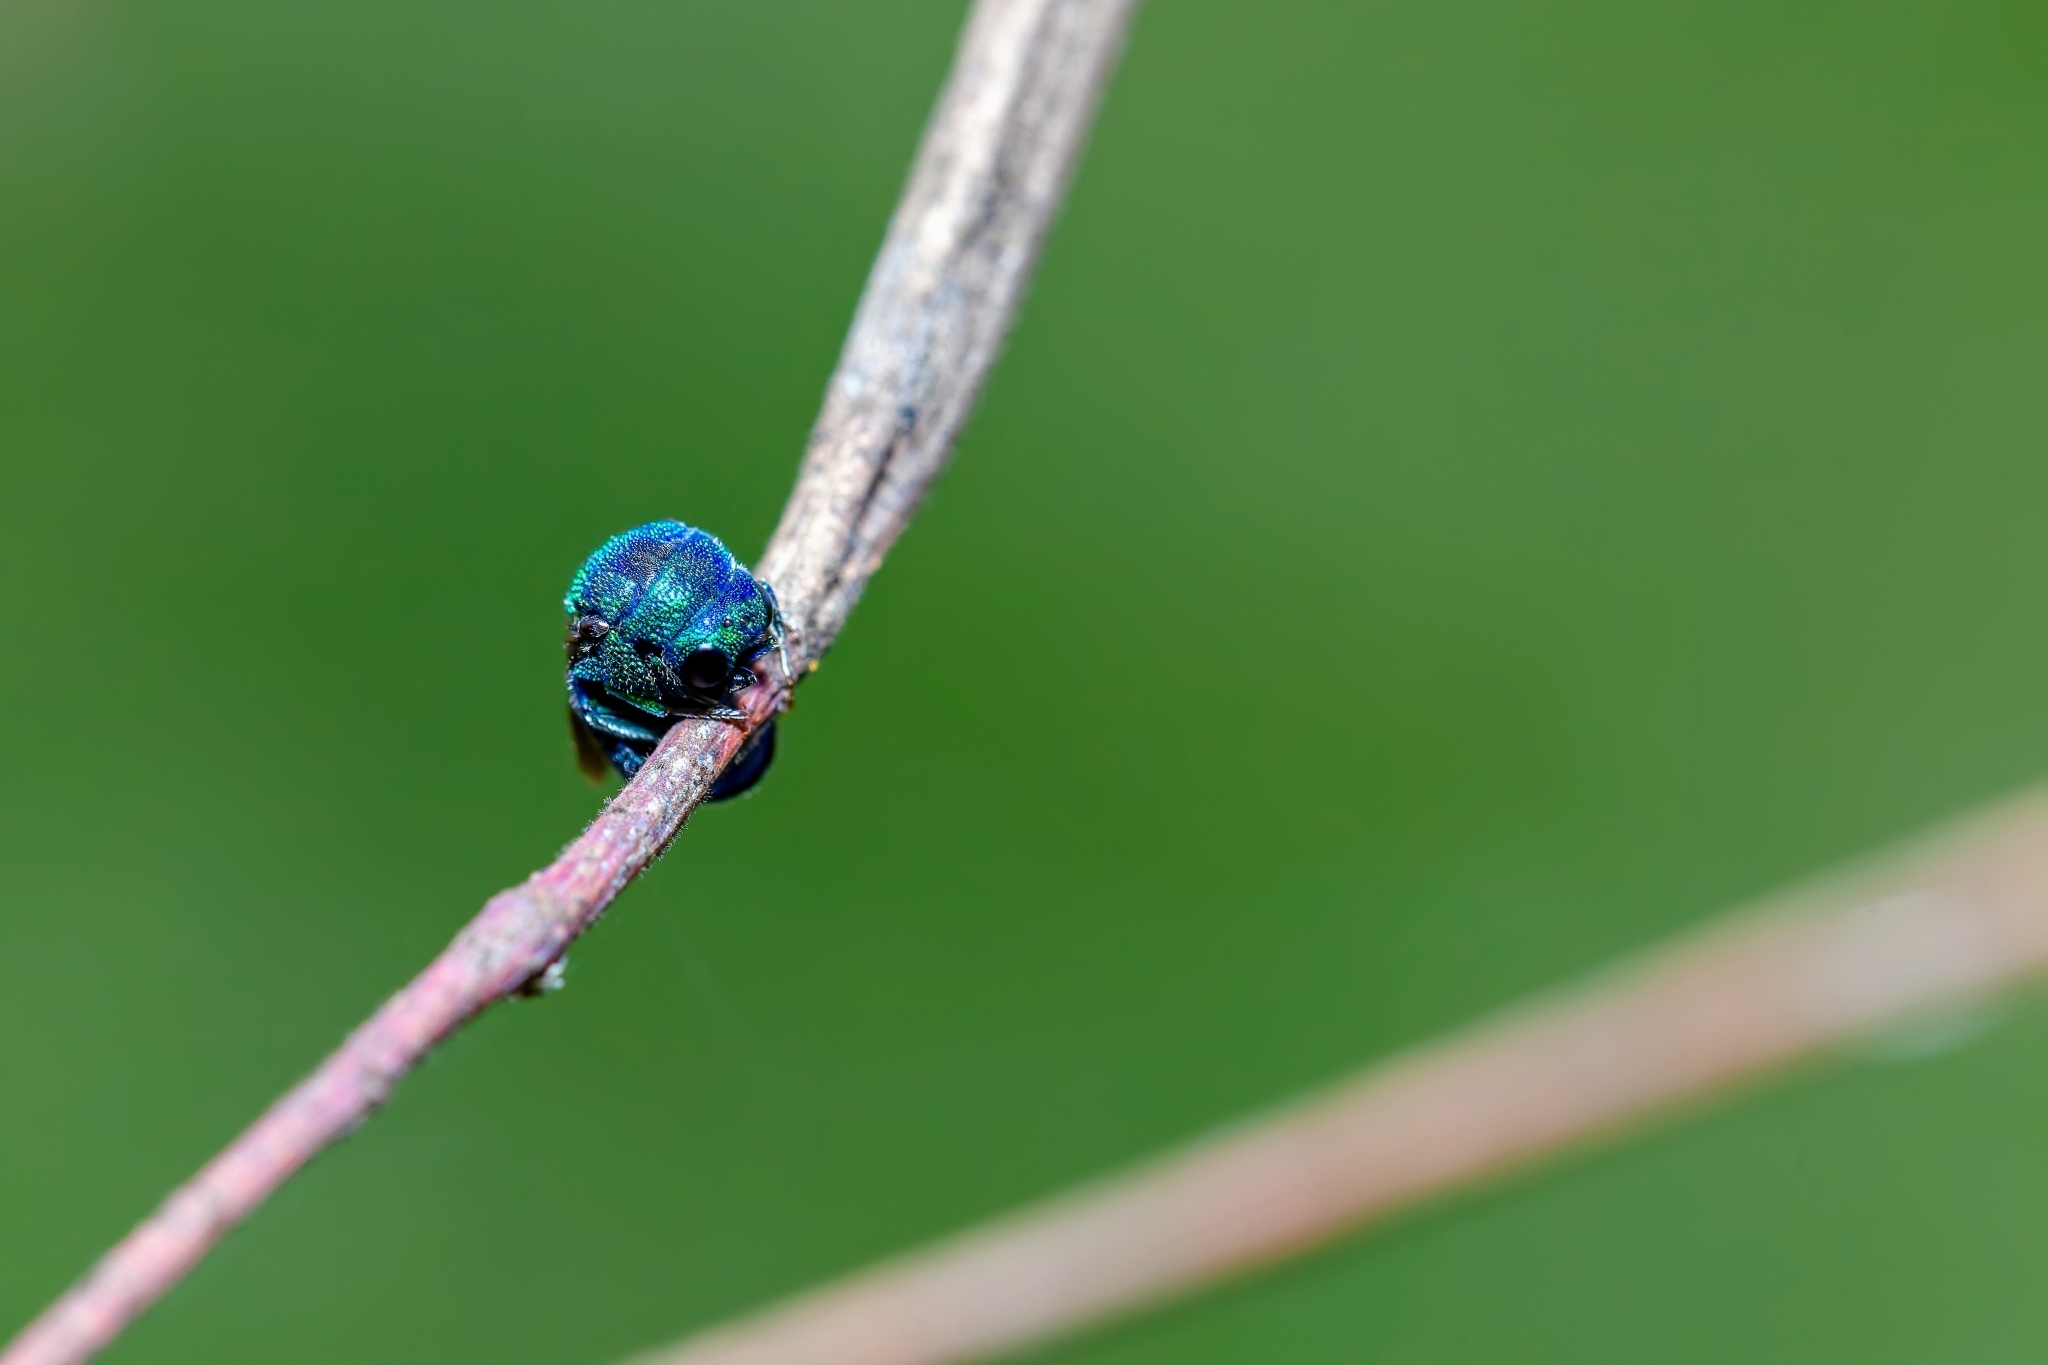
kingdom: Animalia
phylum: Arthropoda
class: Insecta
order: Hymenoptera
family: Chrysididae
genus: Holopyga
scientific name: Holopyga
